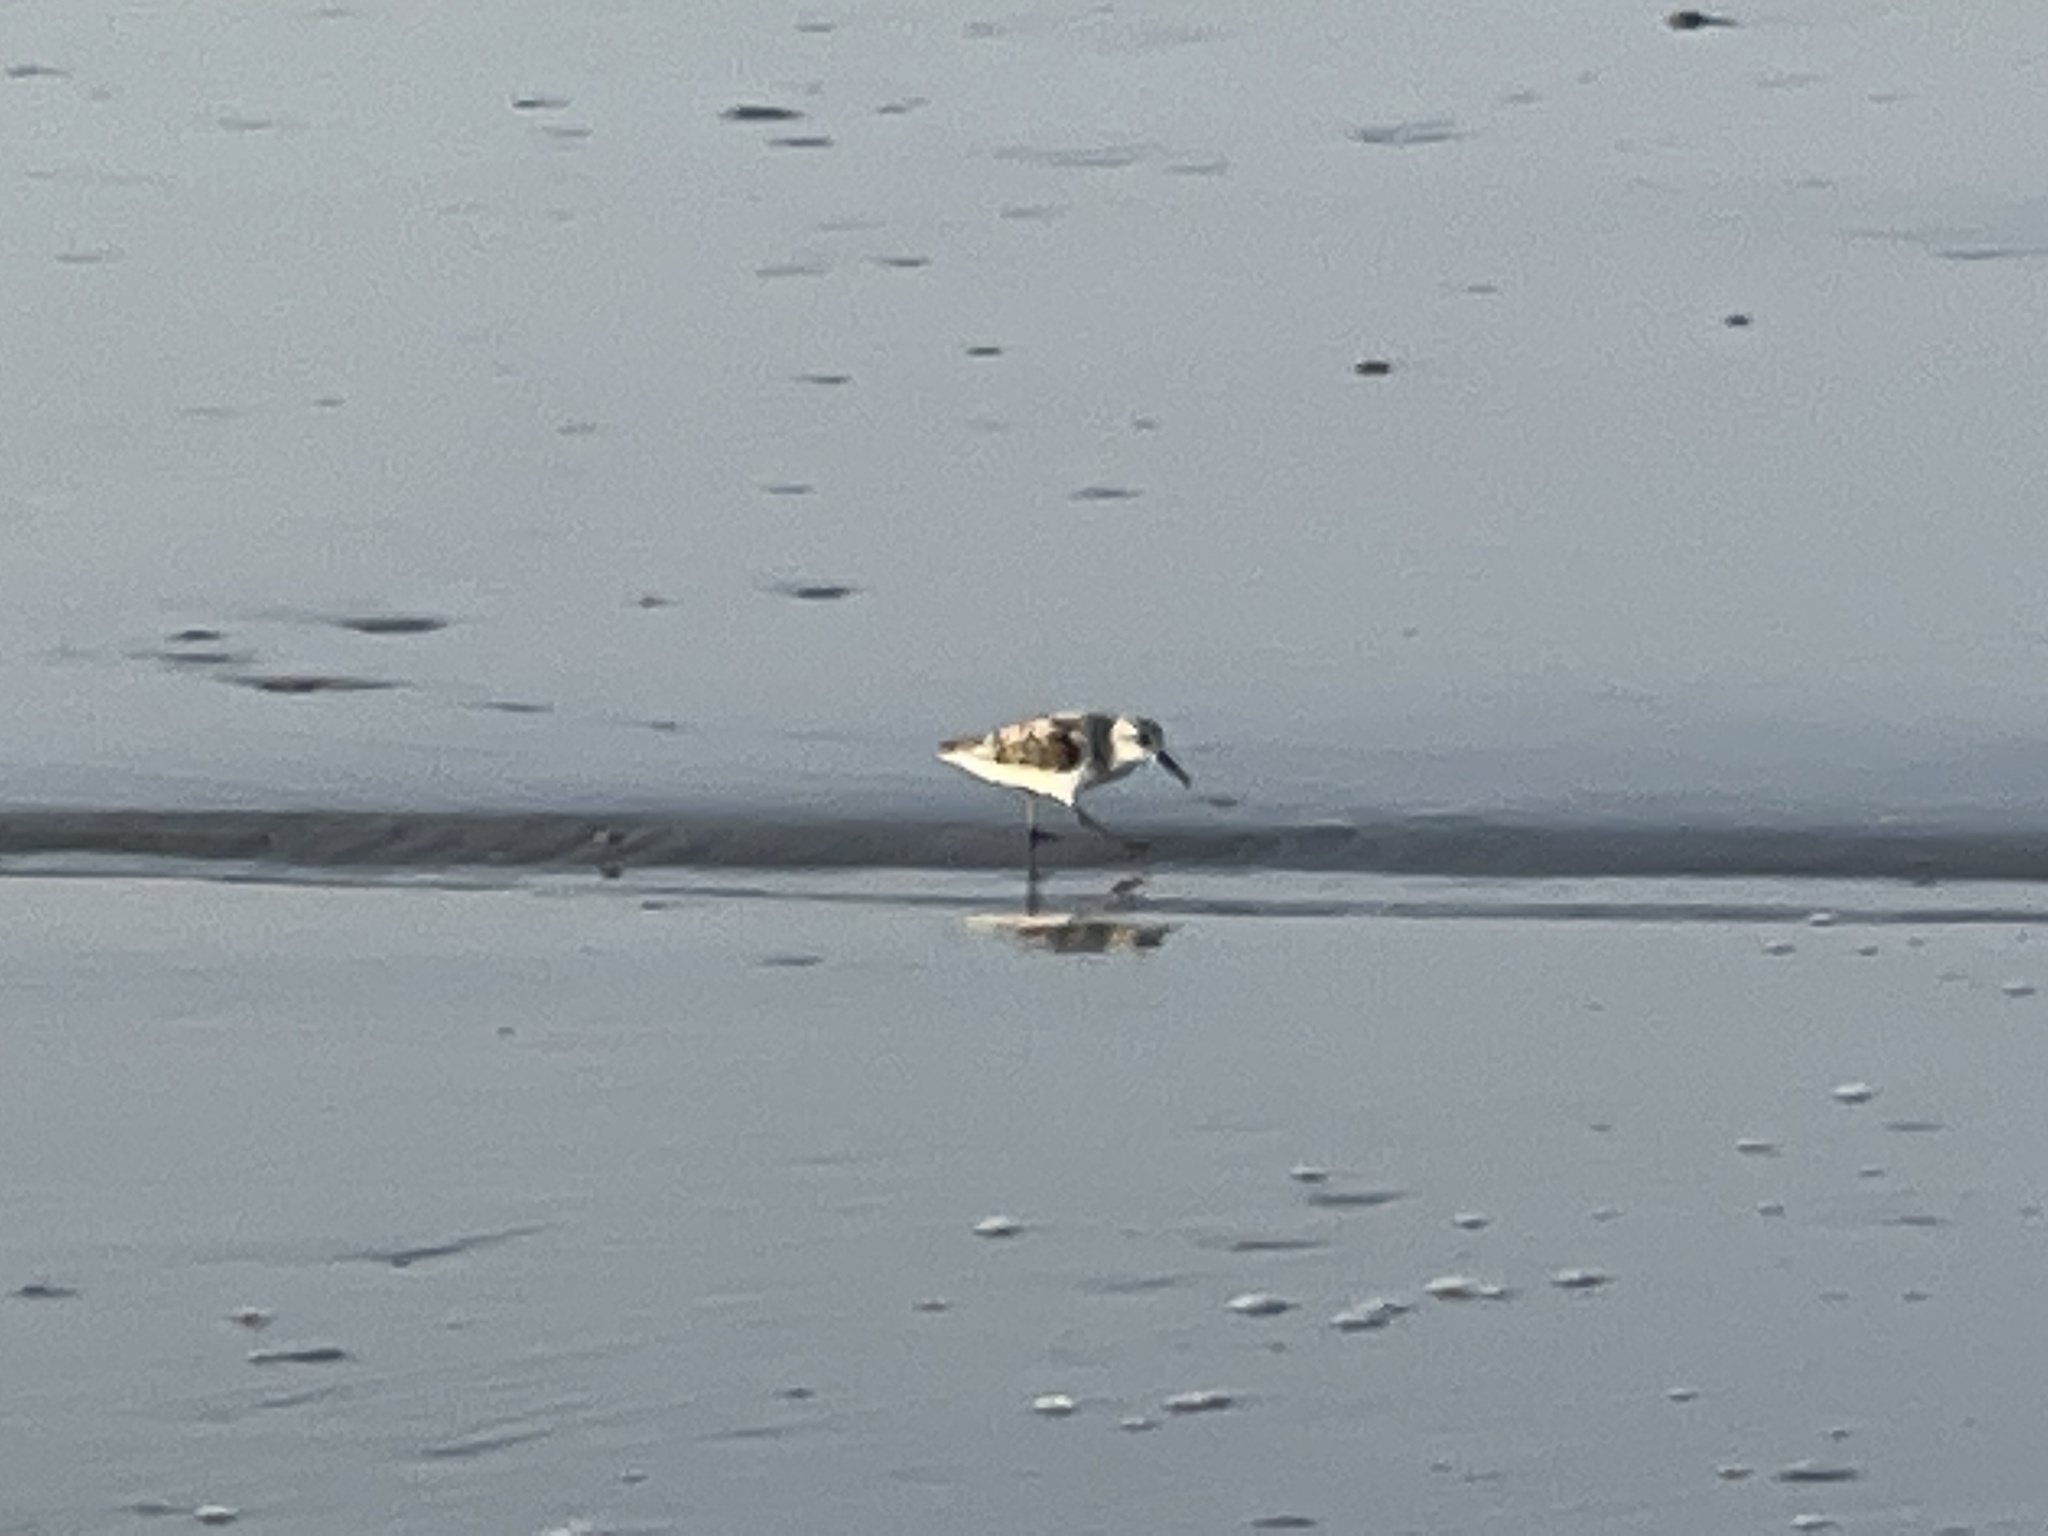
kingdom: Animalia
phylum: Chordata
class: Aves
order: Charadriiformes
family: Scolopacidae
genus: Calidris
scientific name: Calidris alba
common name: Sanderling
